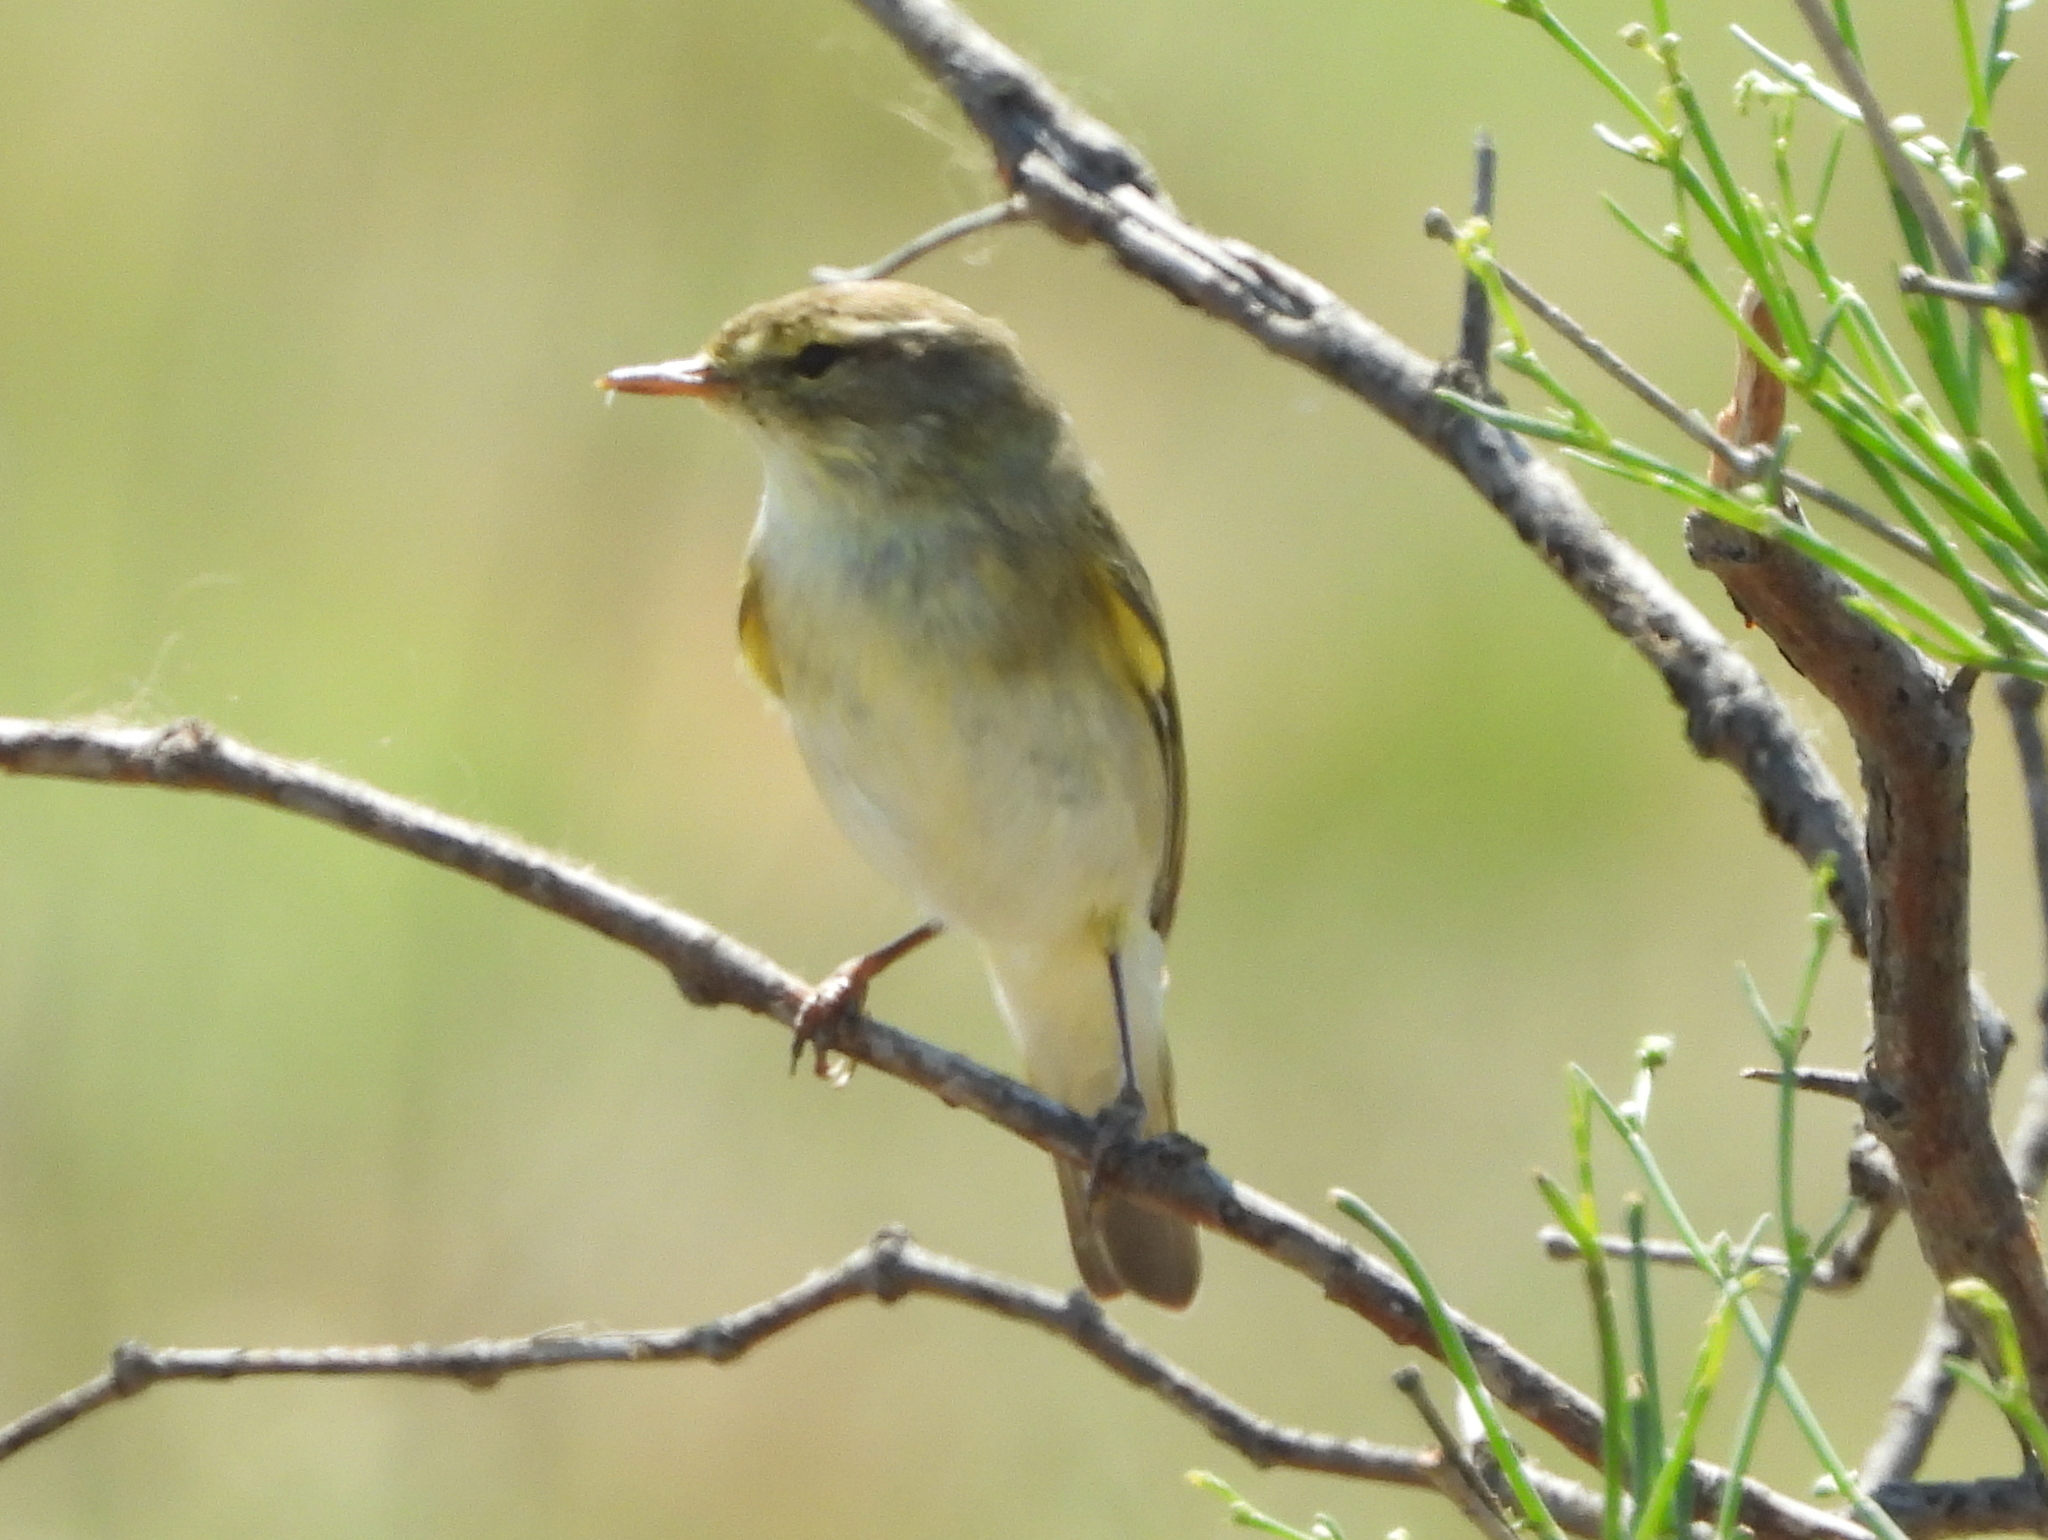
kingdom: Animalia
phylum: Chordata
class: Aves
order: Passeriformes
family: Phylloscopidae
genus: Phylloscopus
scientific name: Phylloscopus collybita
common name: Common chiffchaff
